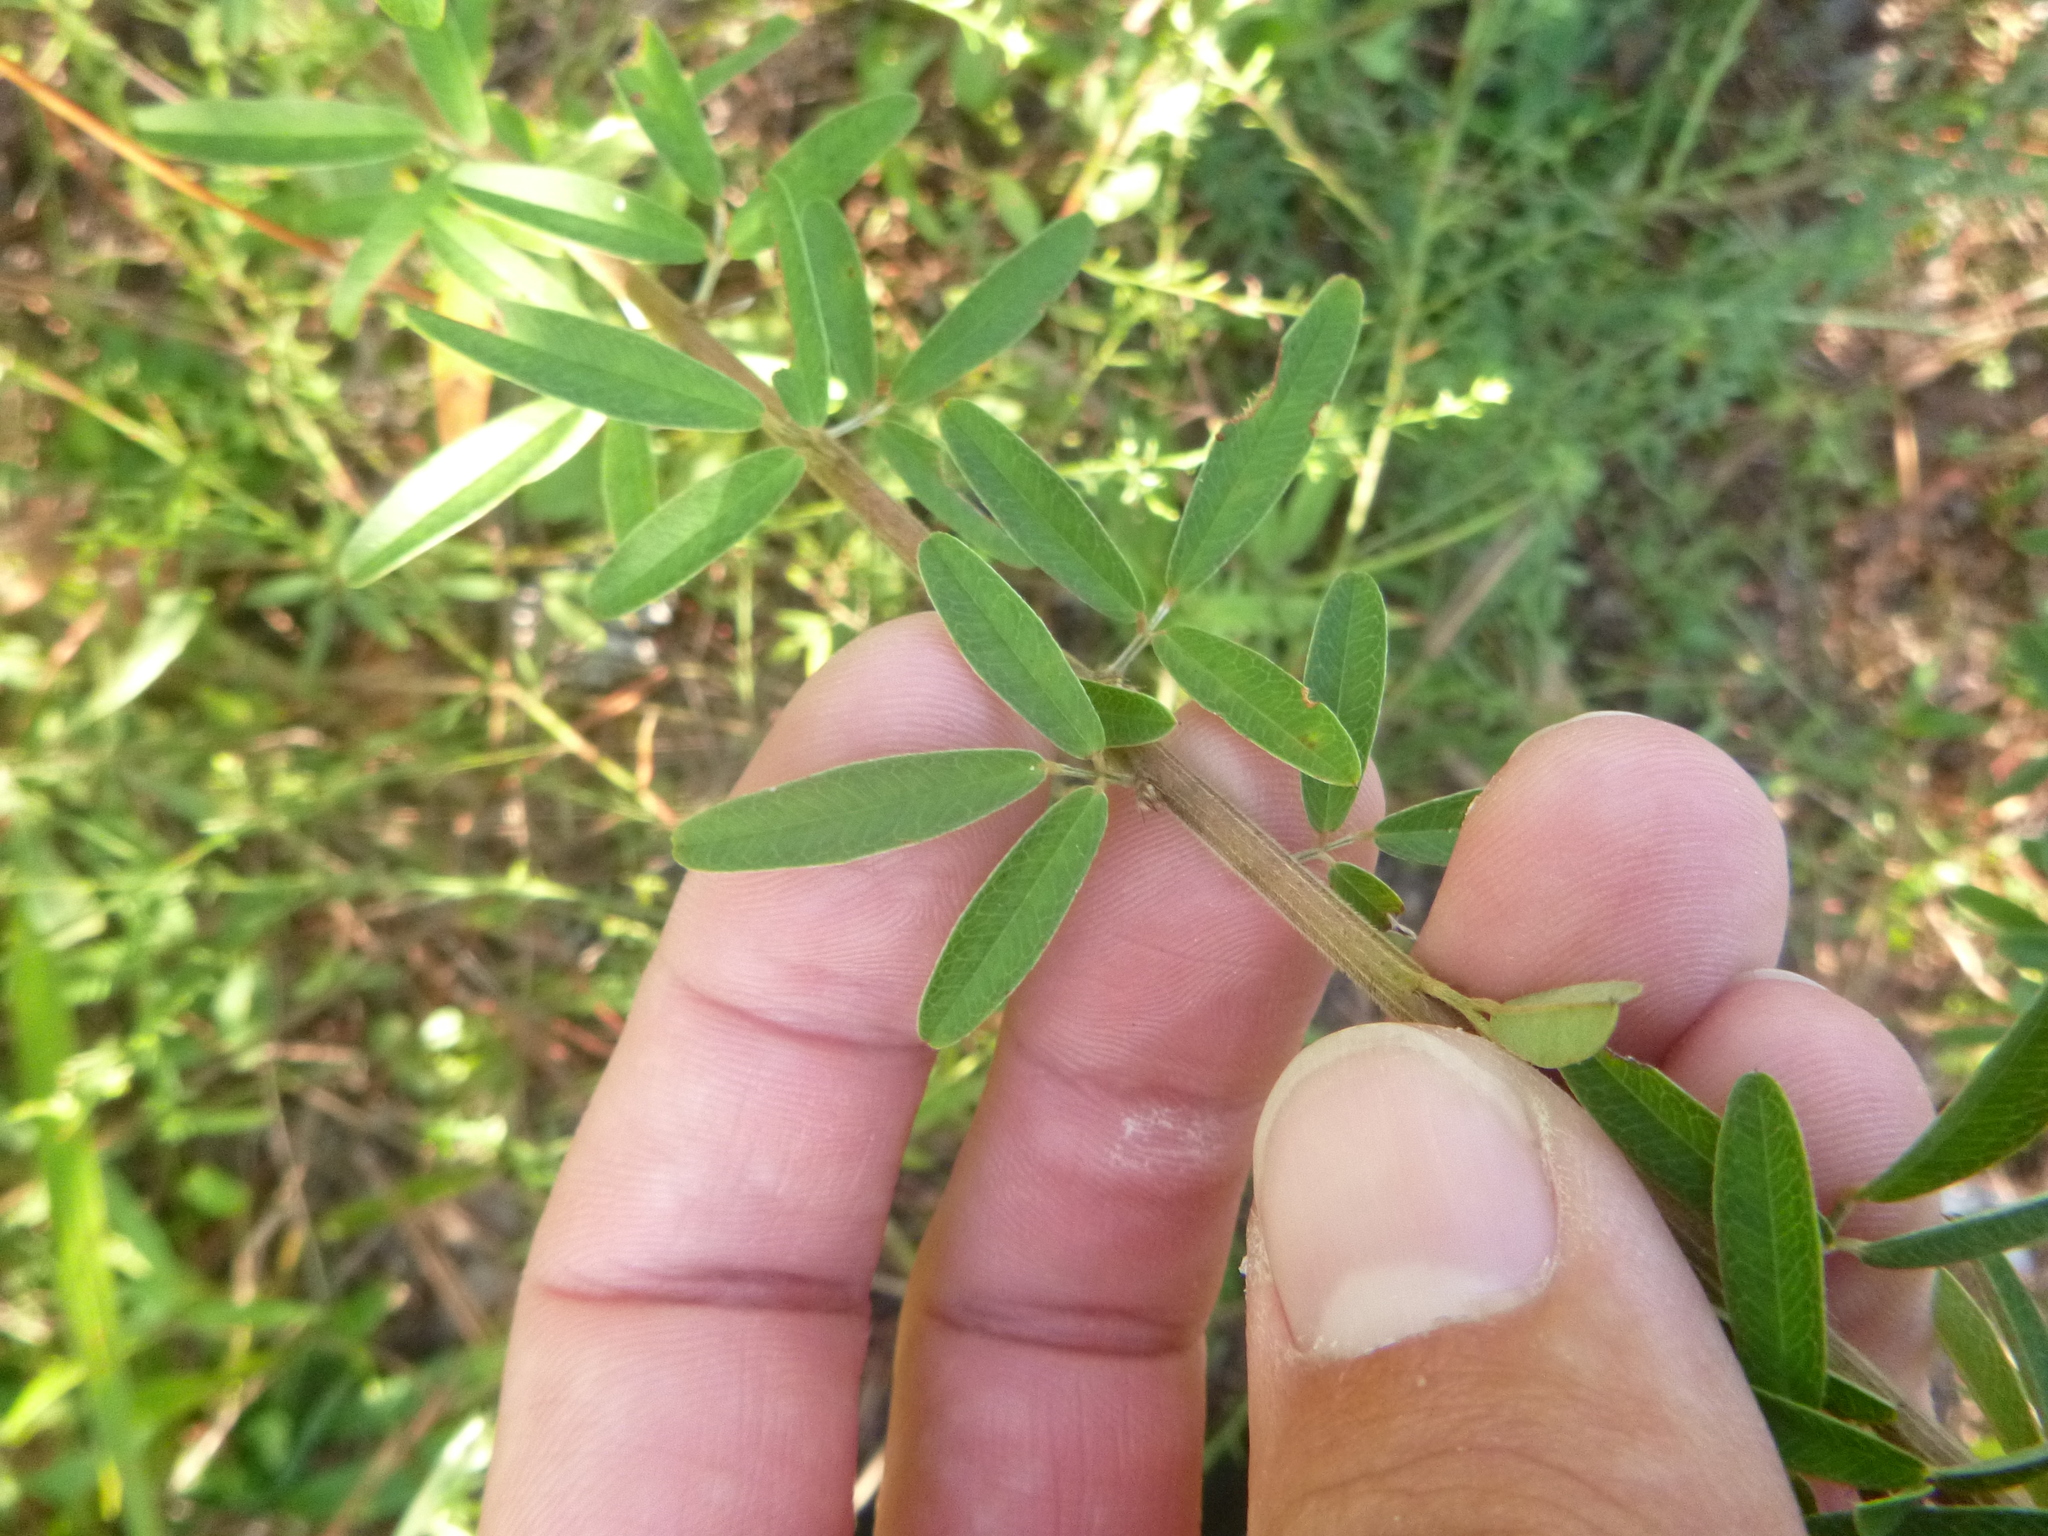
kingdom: Plantae
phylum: Tracheophyta
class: Magnoliopsida
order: Fabales
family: Fabaceae
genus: Lespedeza
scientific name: Lespedeza virginica
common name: Slender bush-clover
